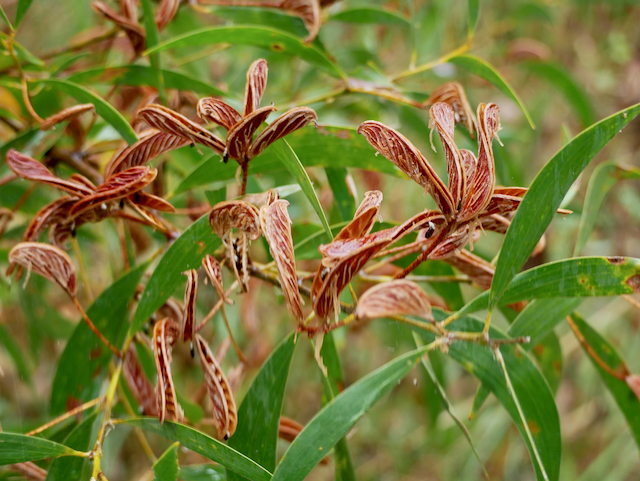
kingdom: Plantae
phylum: Tracheophyta
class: Magnoliopsida
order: Fabales
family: Fabaceae
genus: Acacia
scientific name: Acacia disparrima
